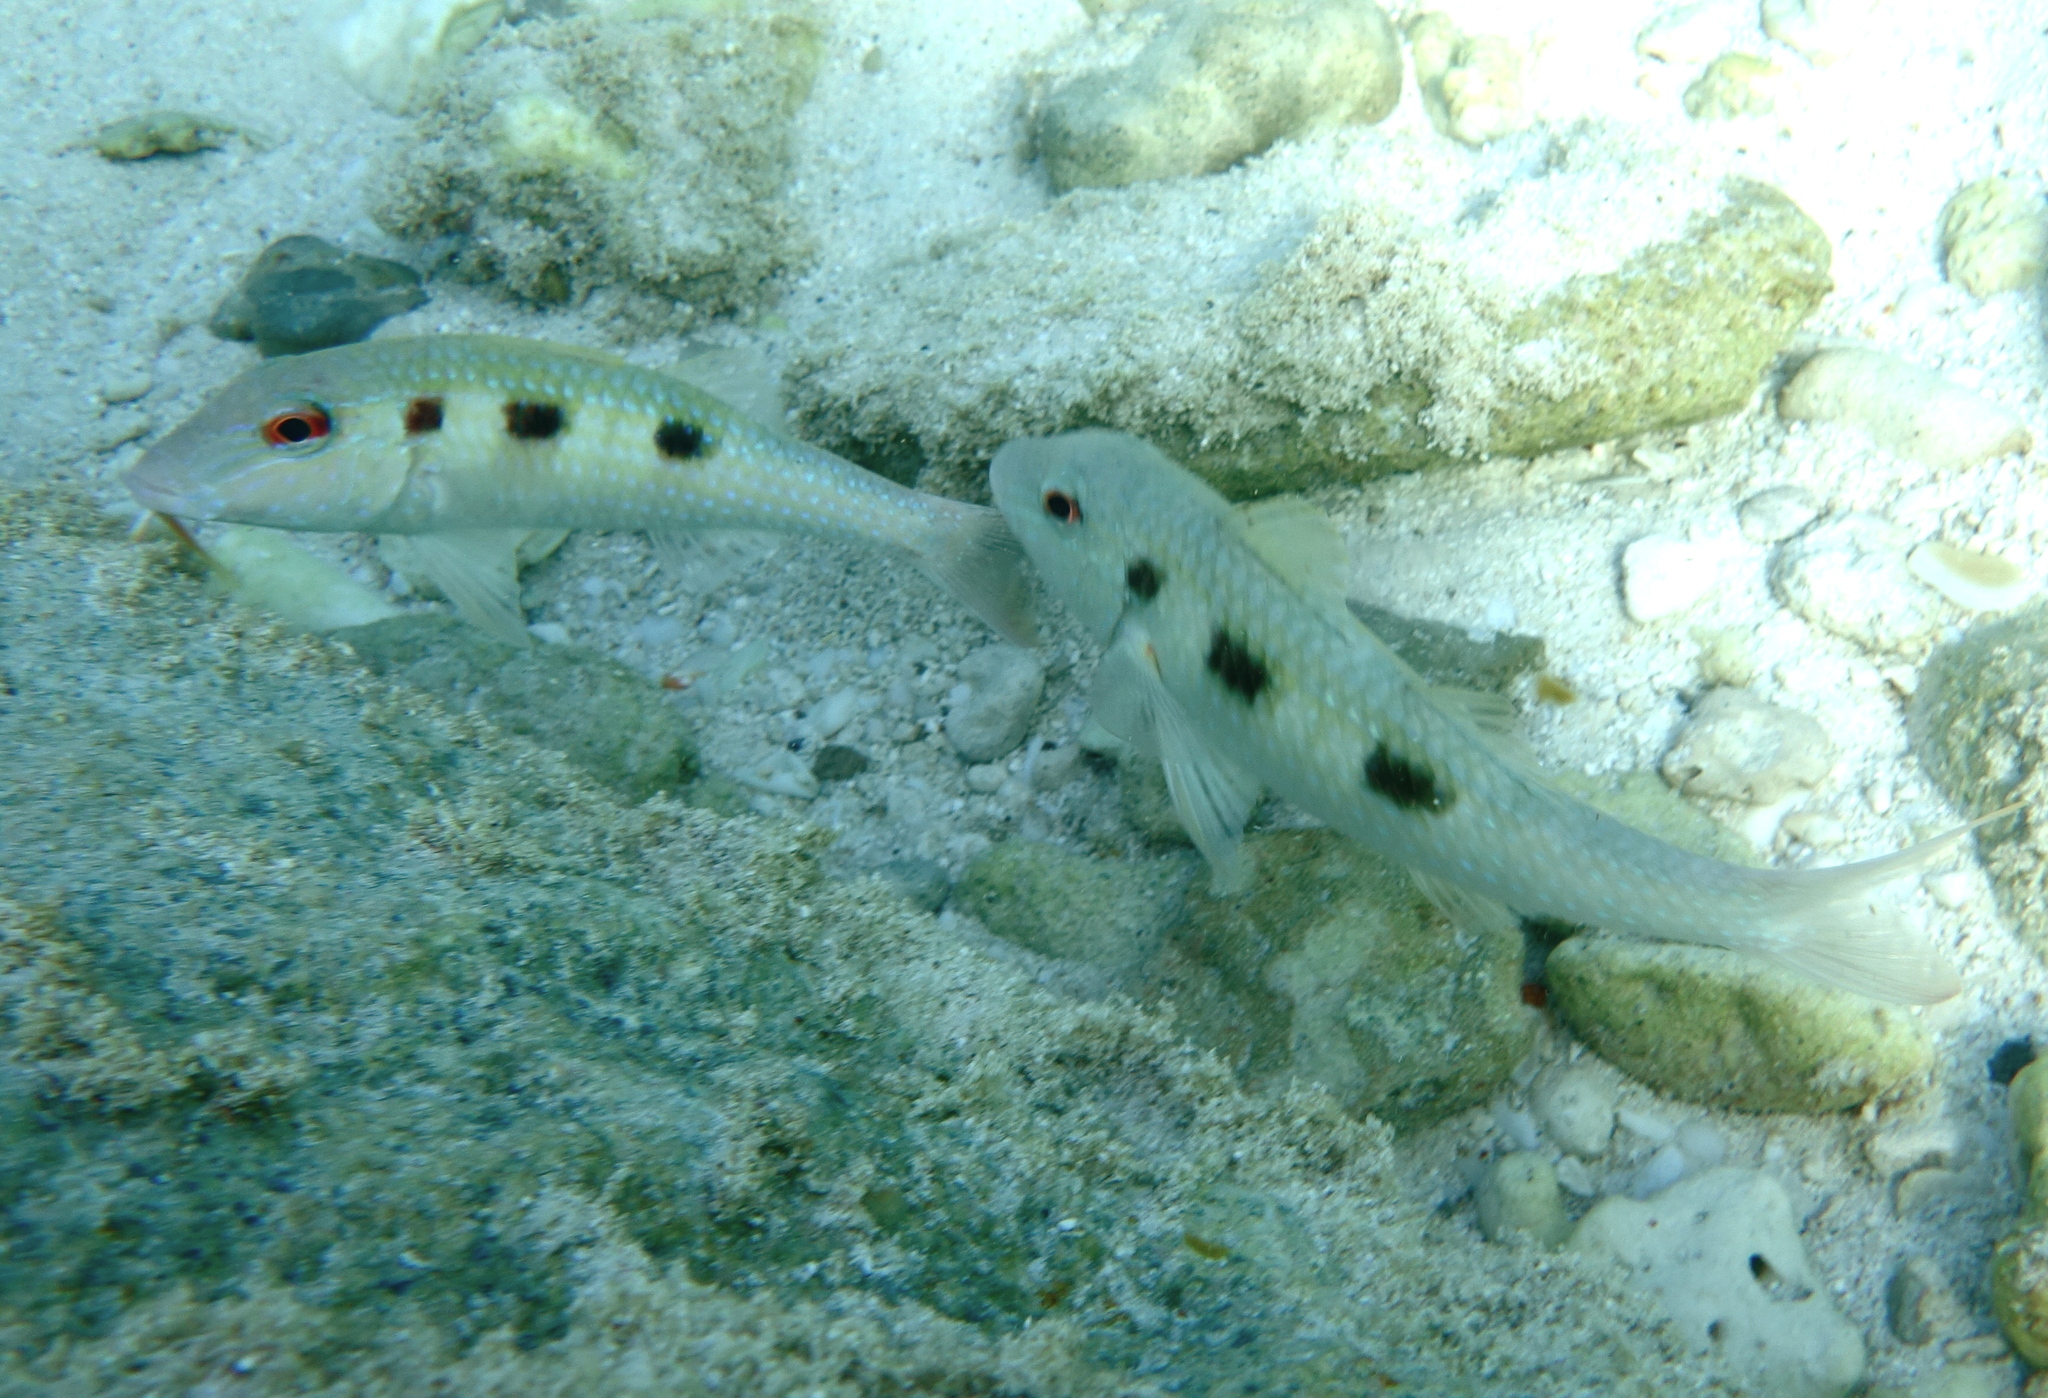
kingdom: Animalia
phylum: Chordata
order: Perciformes
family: Mullidae
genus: Pseudupeneus
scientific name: Pseudupeneus maculatus
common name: Spotted goatfish
